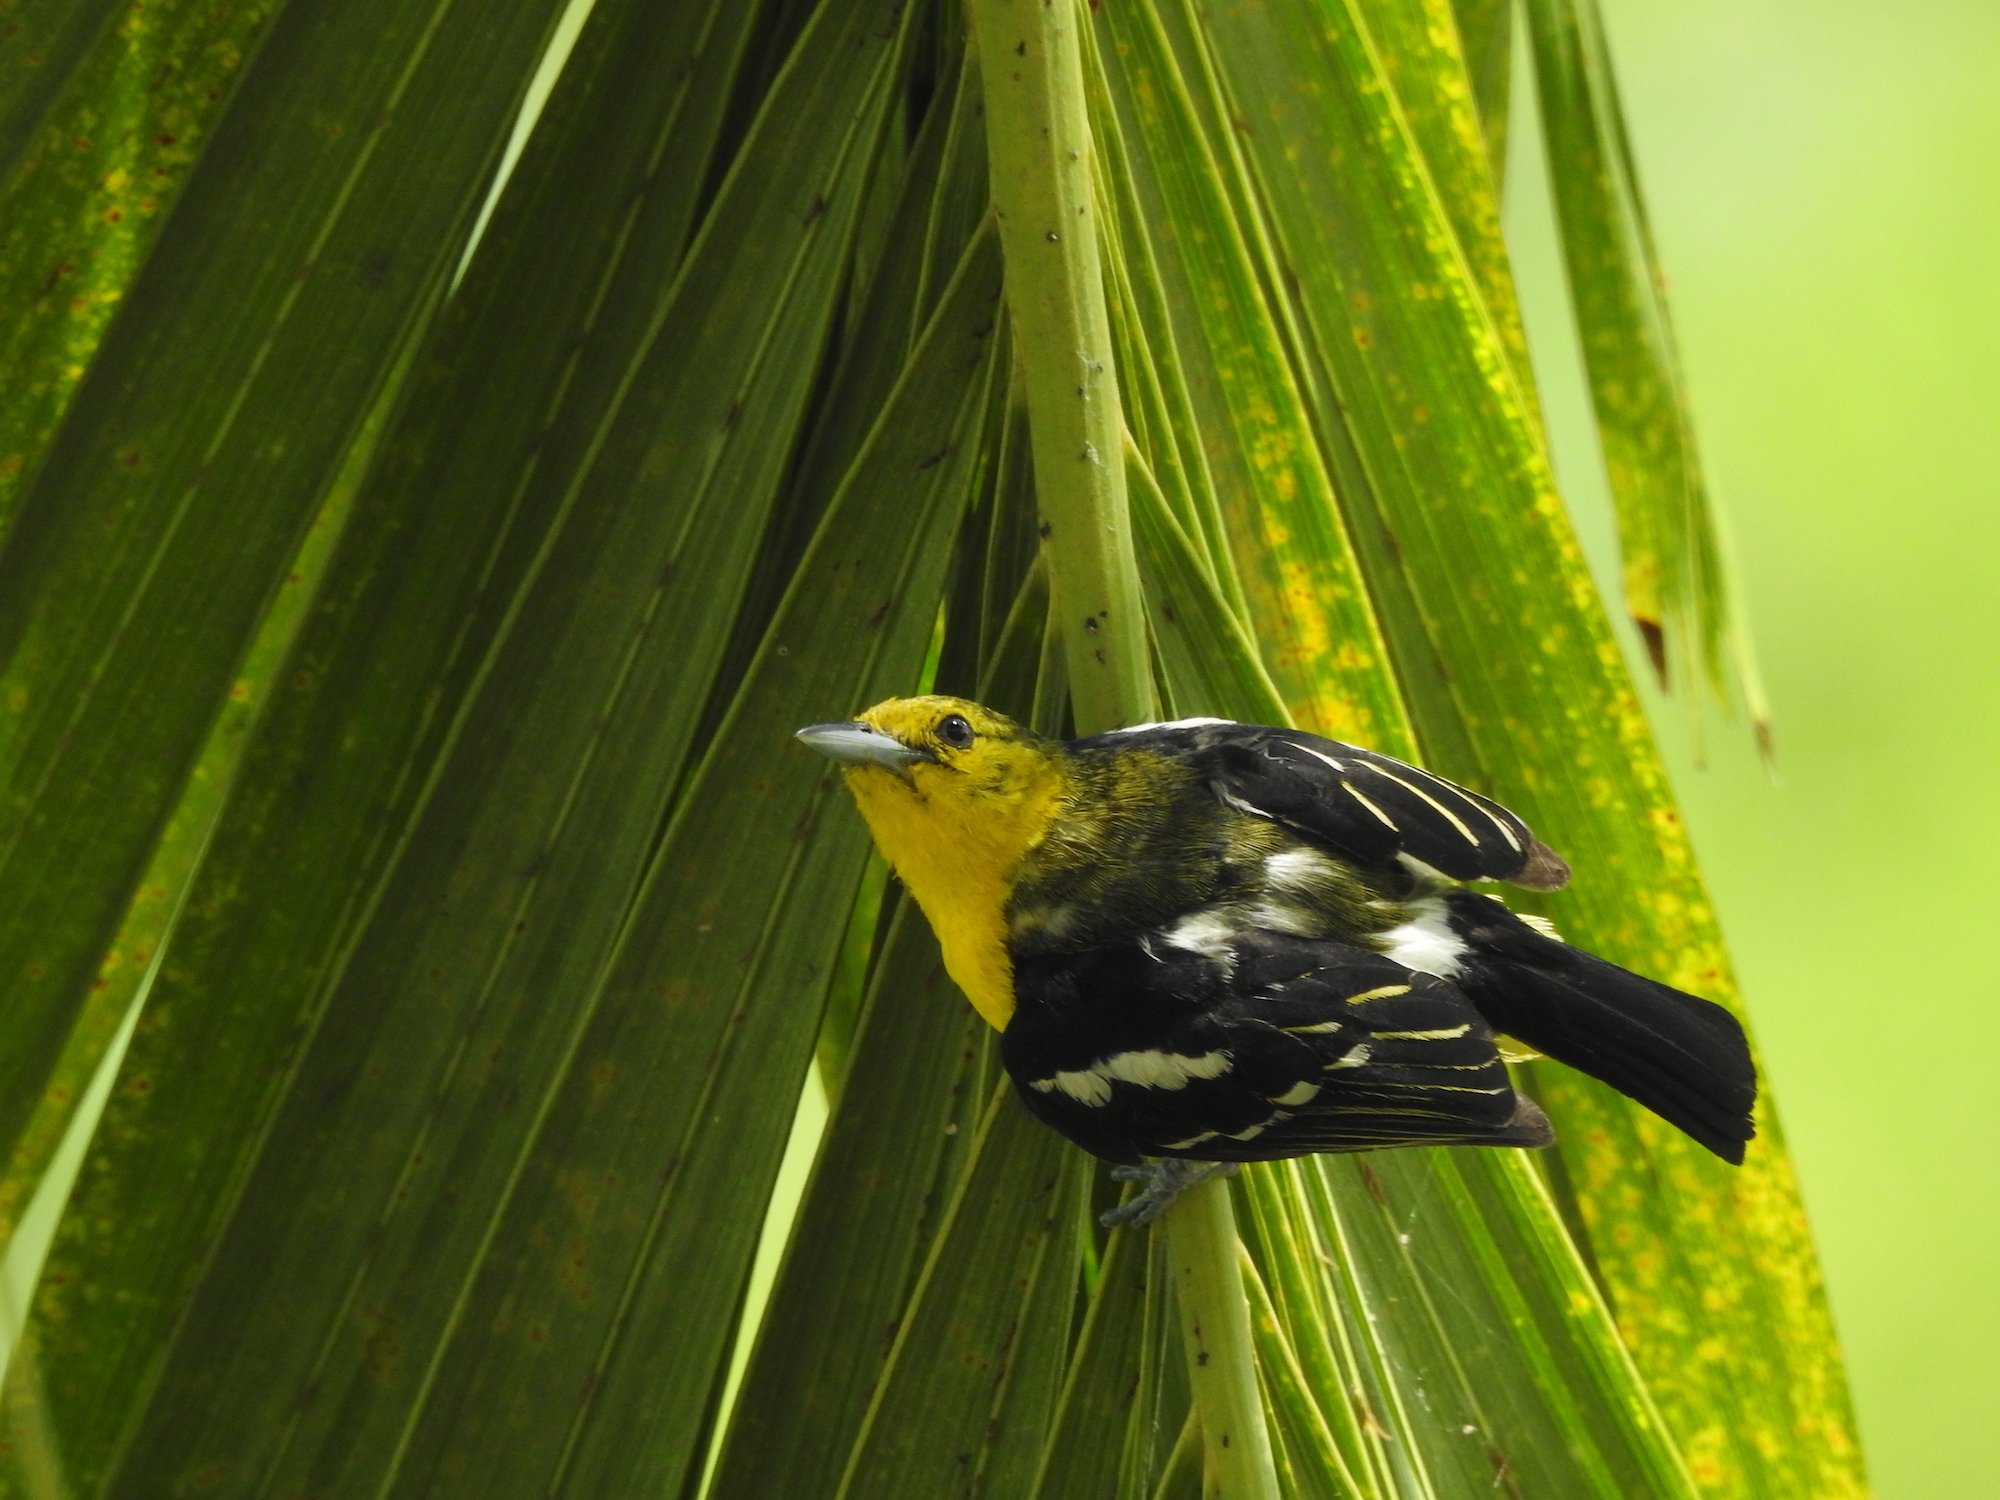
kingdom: Animalia
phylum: Chordata
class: Aves
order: Passeriformes
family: Aegithinidae
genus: Aegithina
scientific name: Aegithina tiphia
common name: Common iora
